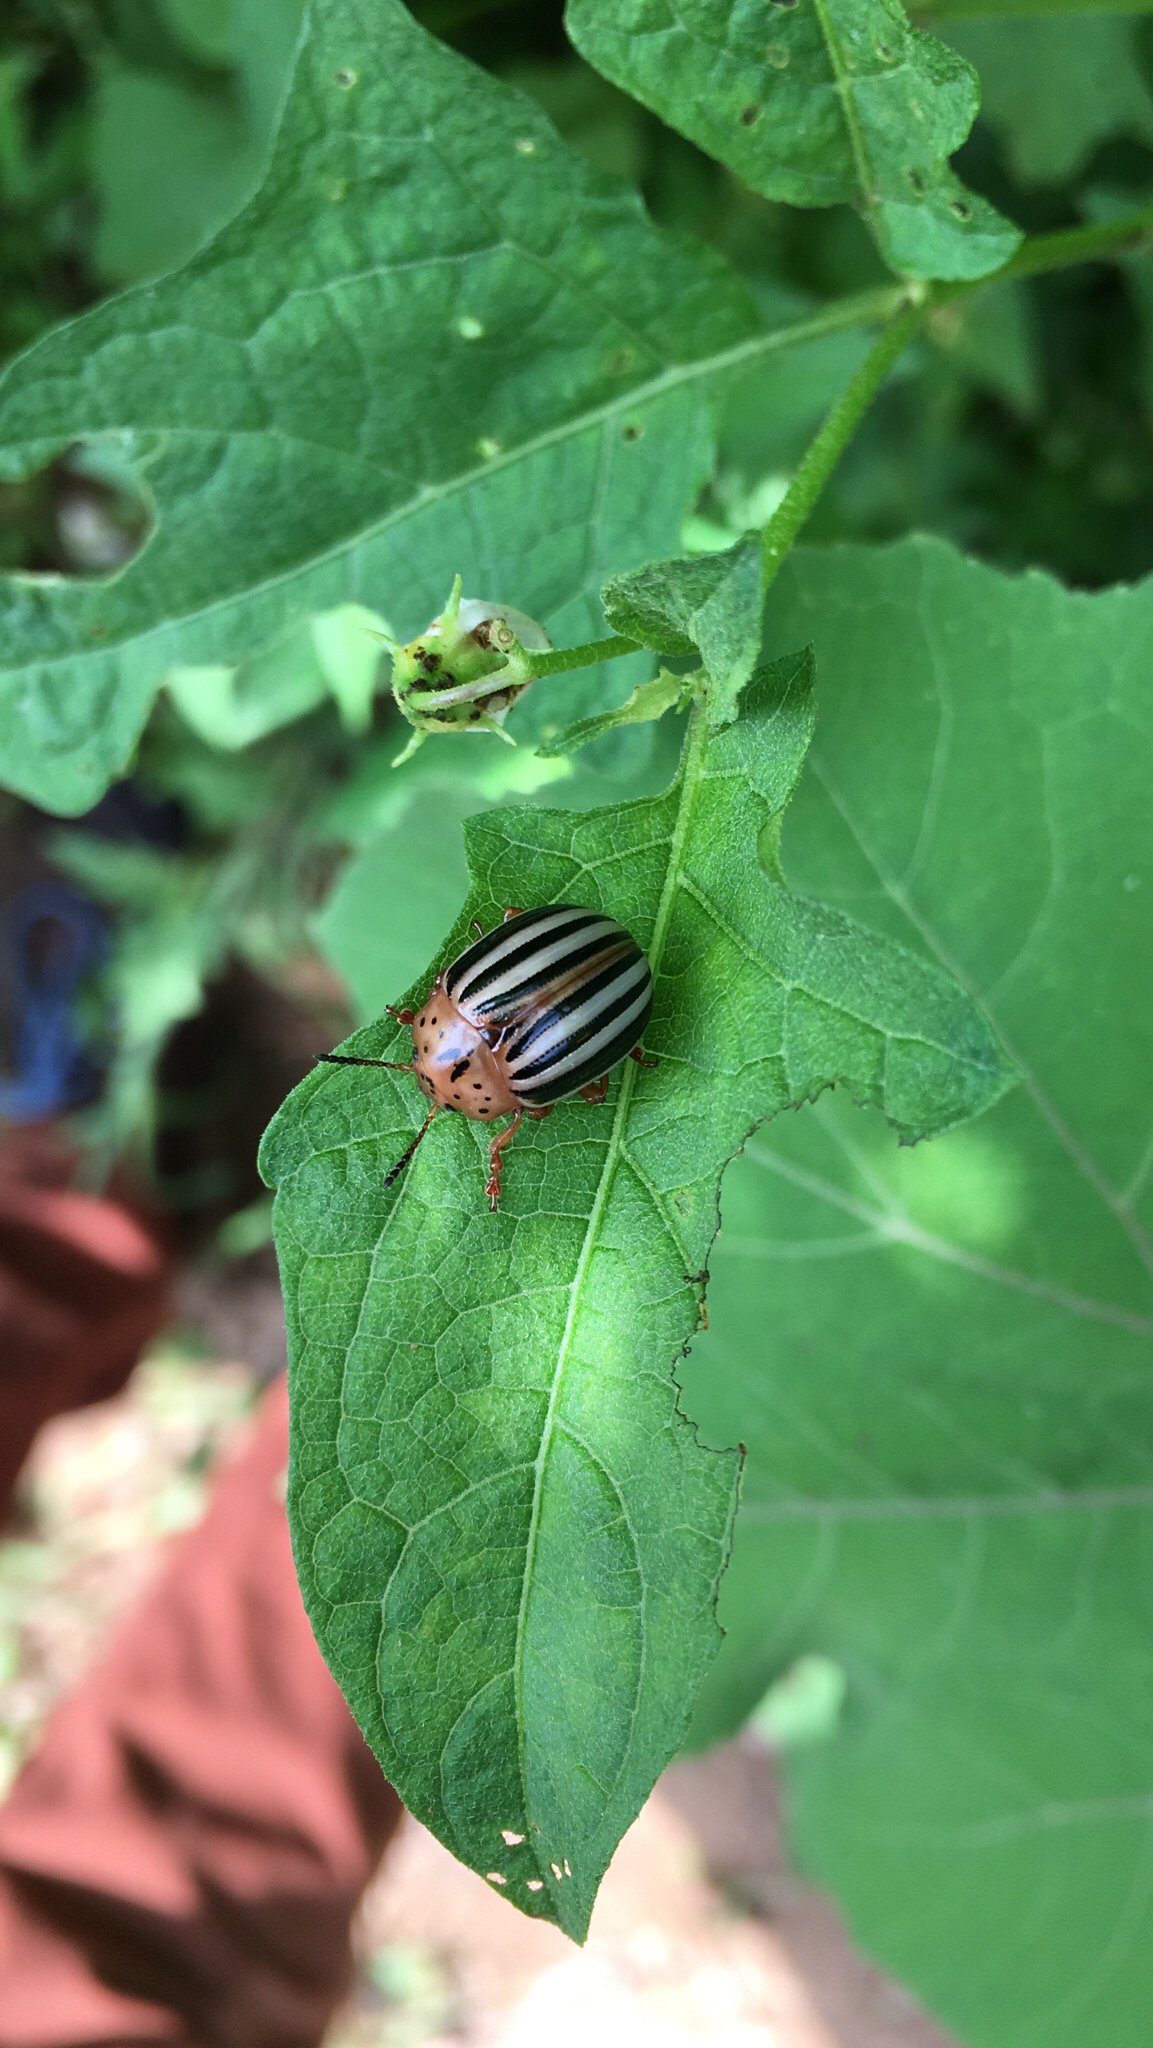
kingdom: Animalia
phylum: Arthropoda
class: Insecta
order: Coleoptera
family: Chrysomelidae
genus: Leptinotarsa
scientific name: Leptinotarsa juncta
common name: False potato beetle
